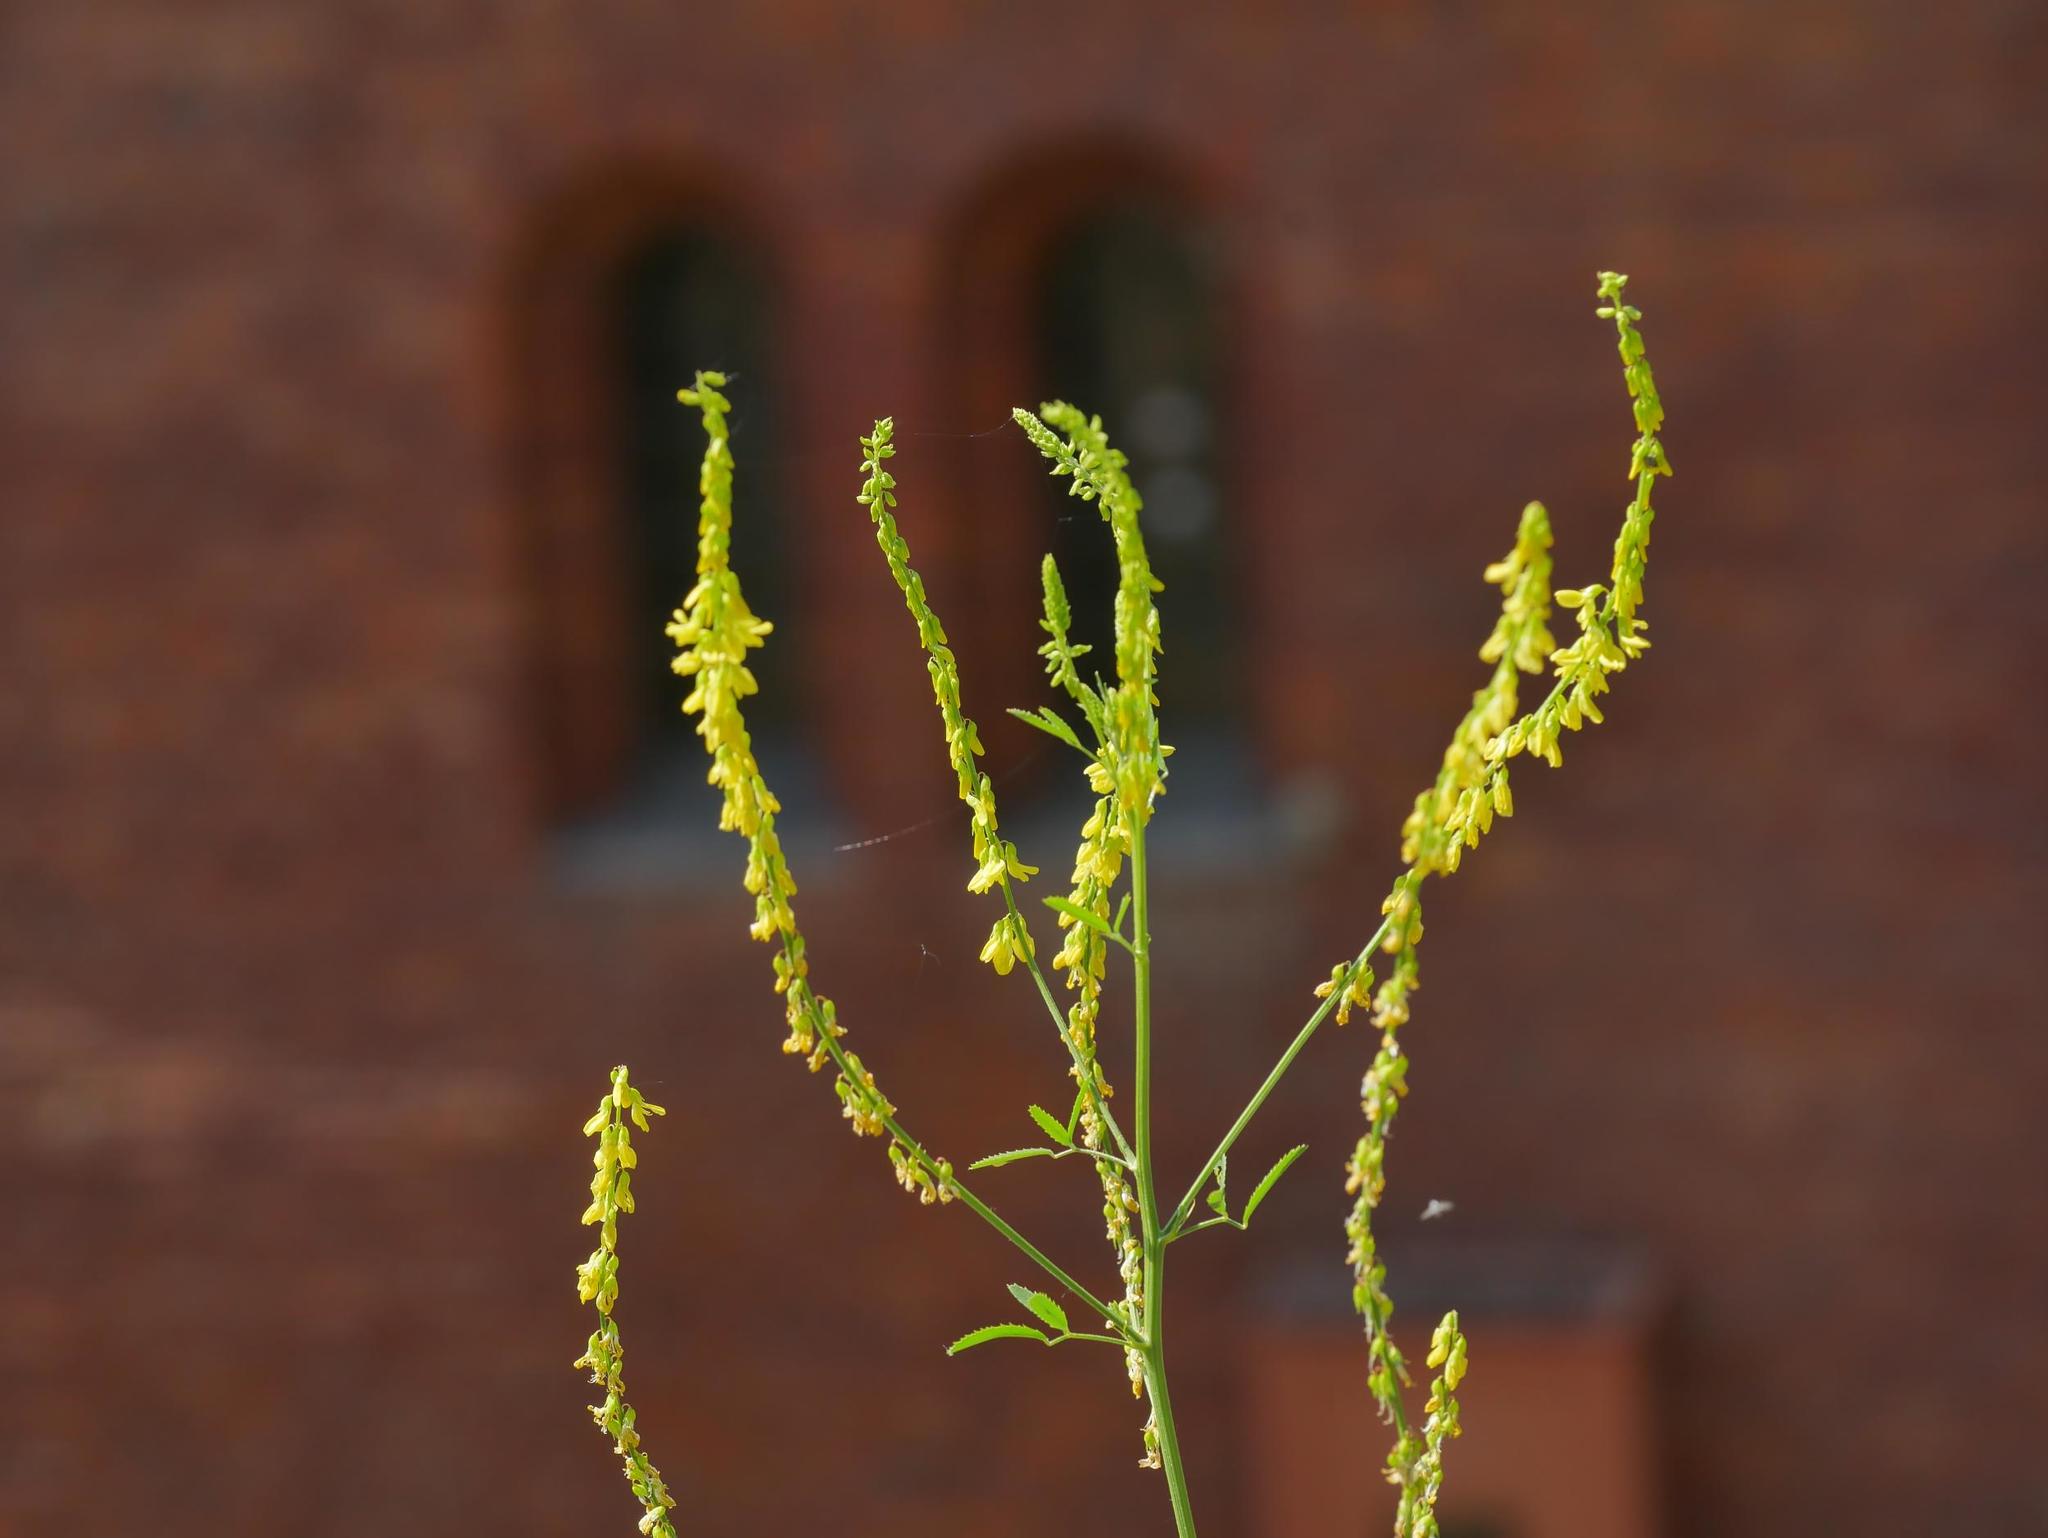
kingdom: Plantae
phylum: Tracheophyta
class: Magnoliopsida
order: Fabales
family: Fabaceae
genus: Melilotus
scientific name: Melilotus officinalis
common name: Sweetclover
